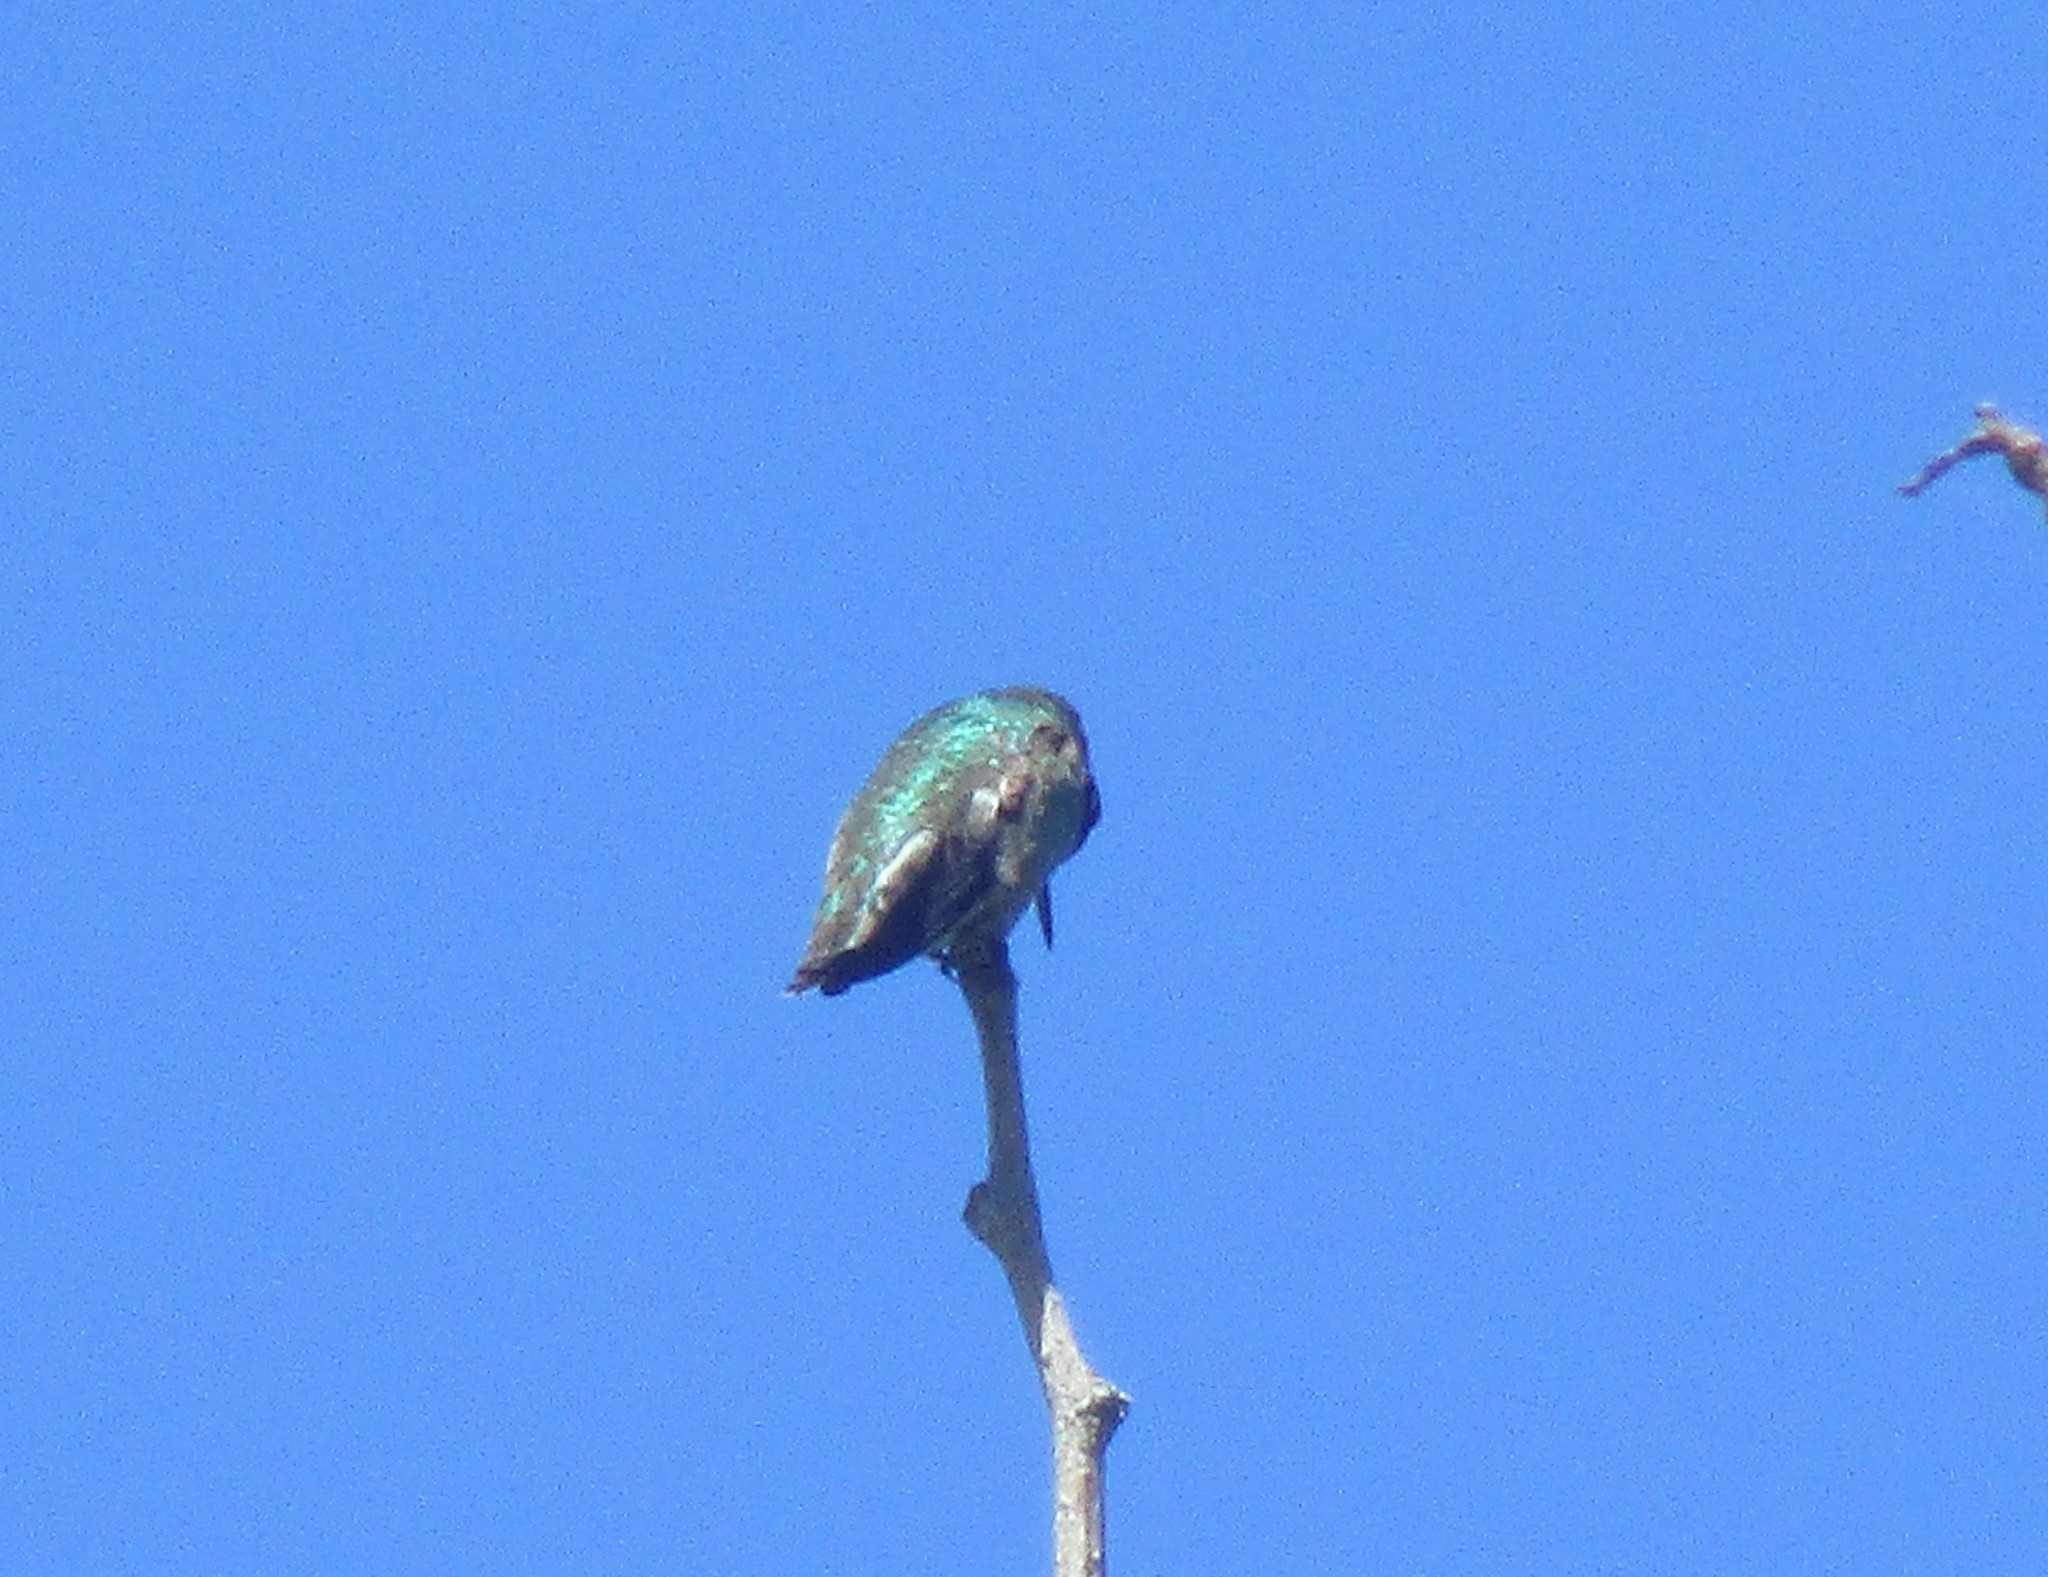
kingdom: Animalia
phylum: Chordata
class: Aves
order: Apodiformes
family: Trochilidae
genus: Calypte
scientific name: Calypte anna
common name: Anna's hummingbird
